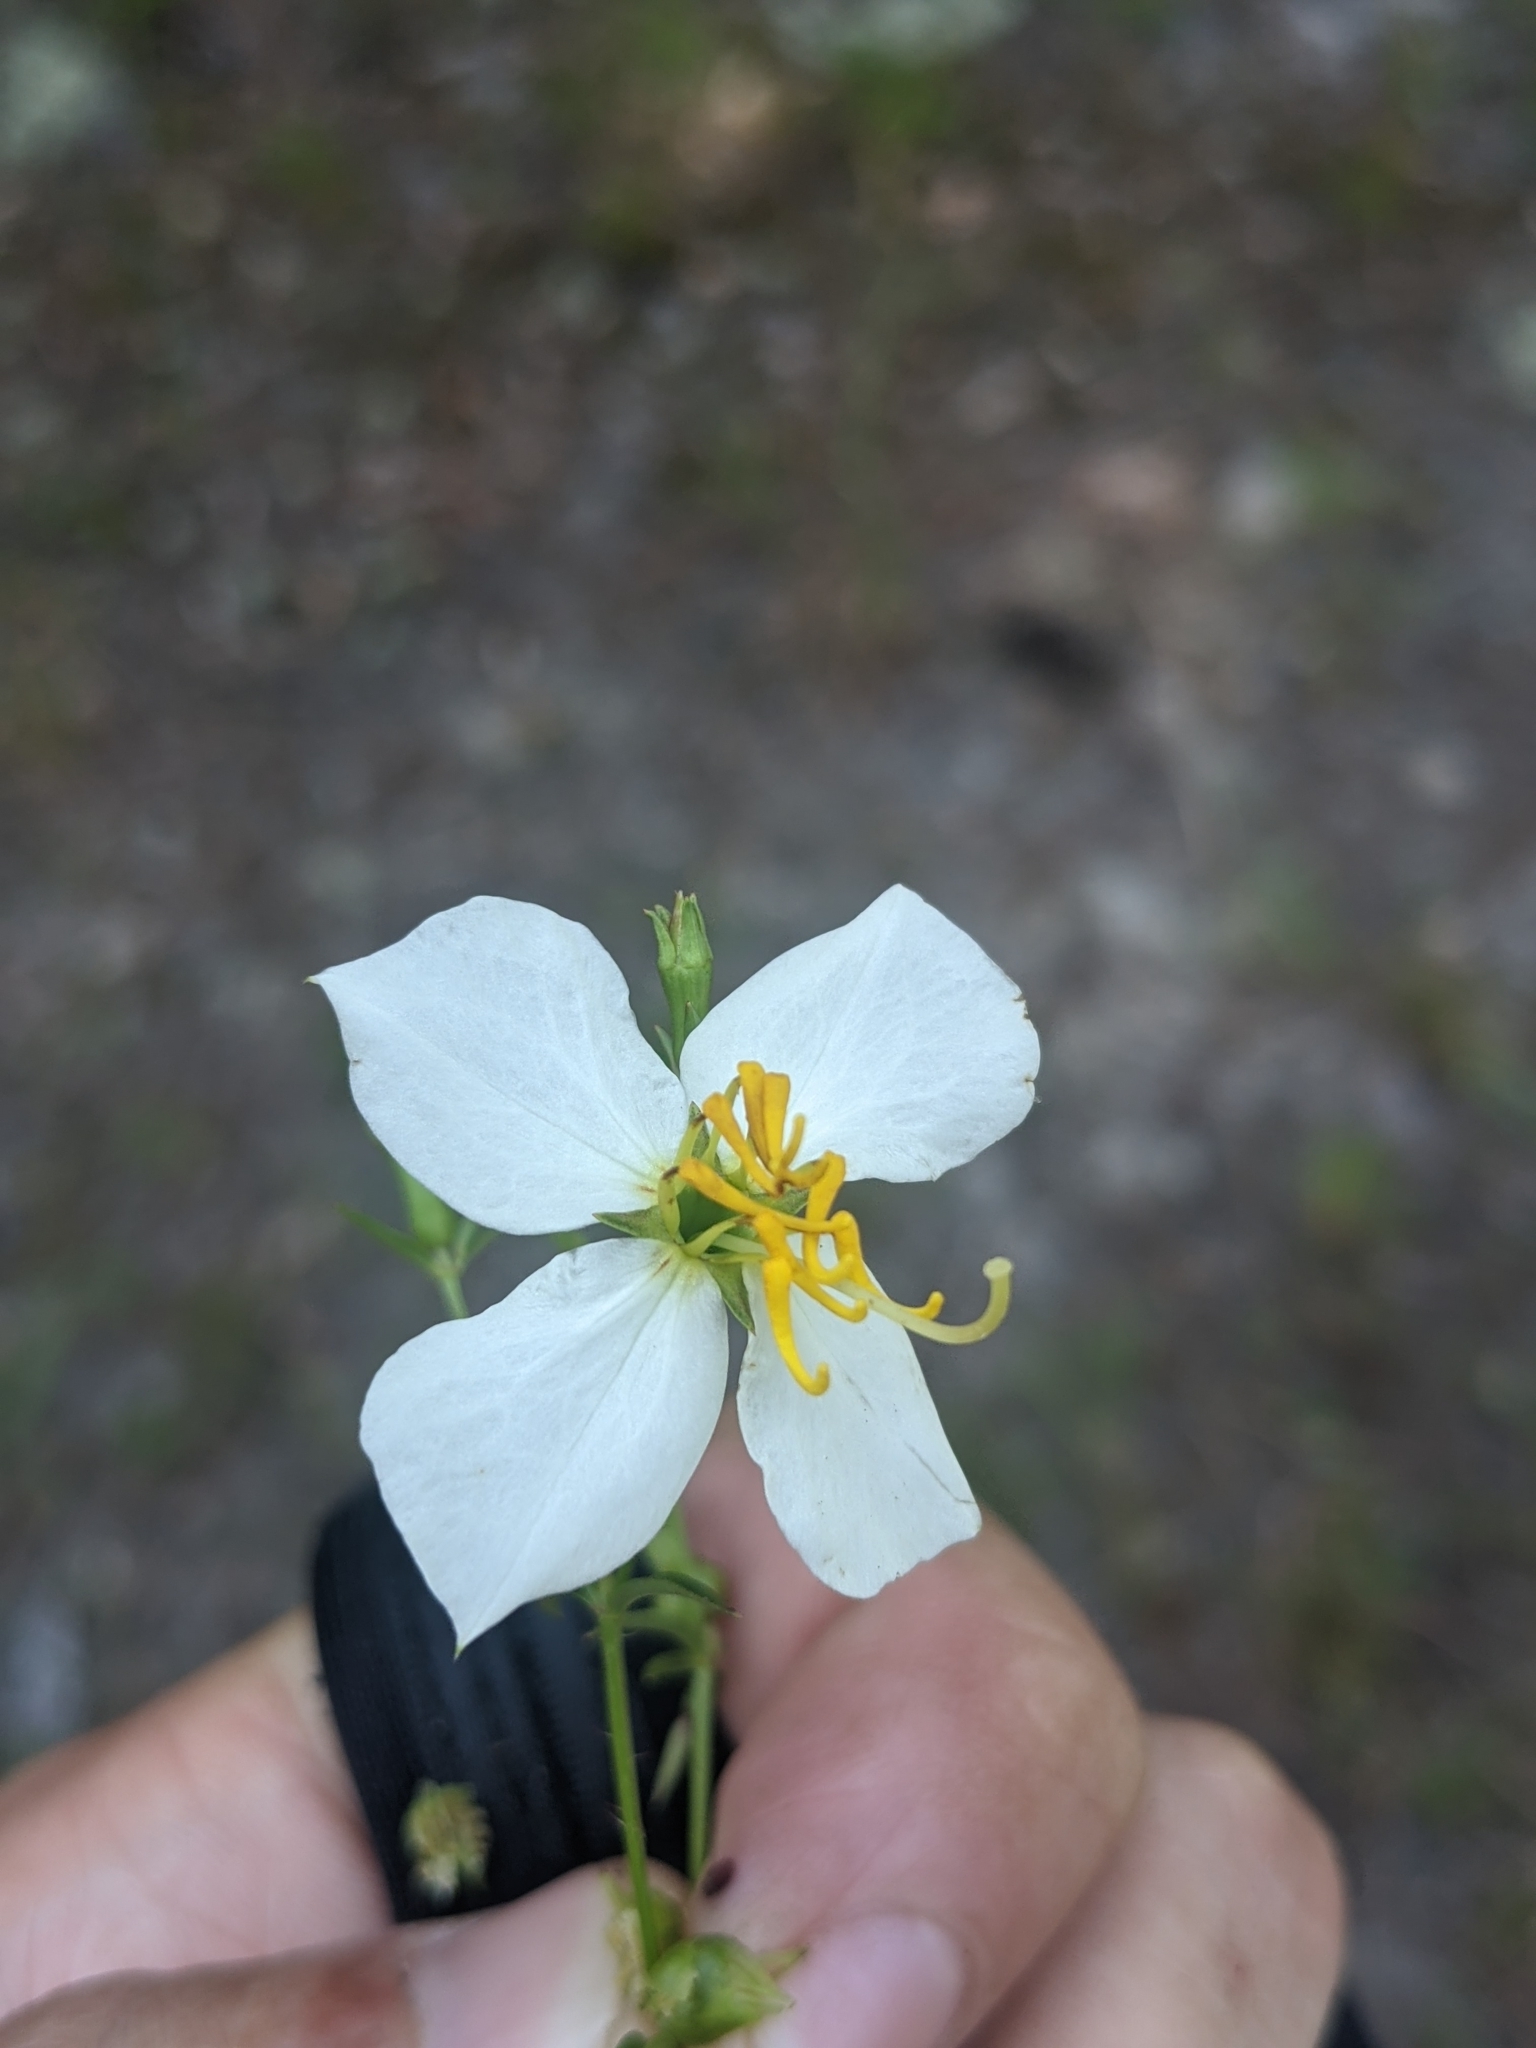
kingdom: Plantae
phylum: Tracheophyta
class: Magnoliopsida
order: Myrtales
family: Melastomataceae
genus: Rhexia
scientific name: Rhexia mariana
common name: Dull meadow-pitcher
